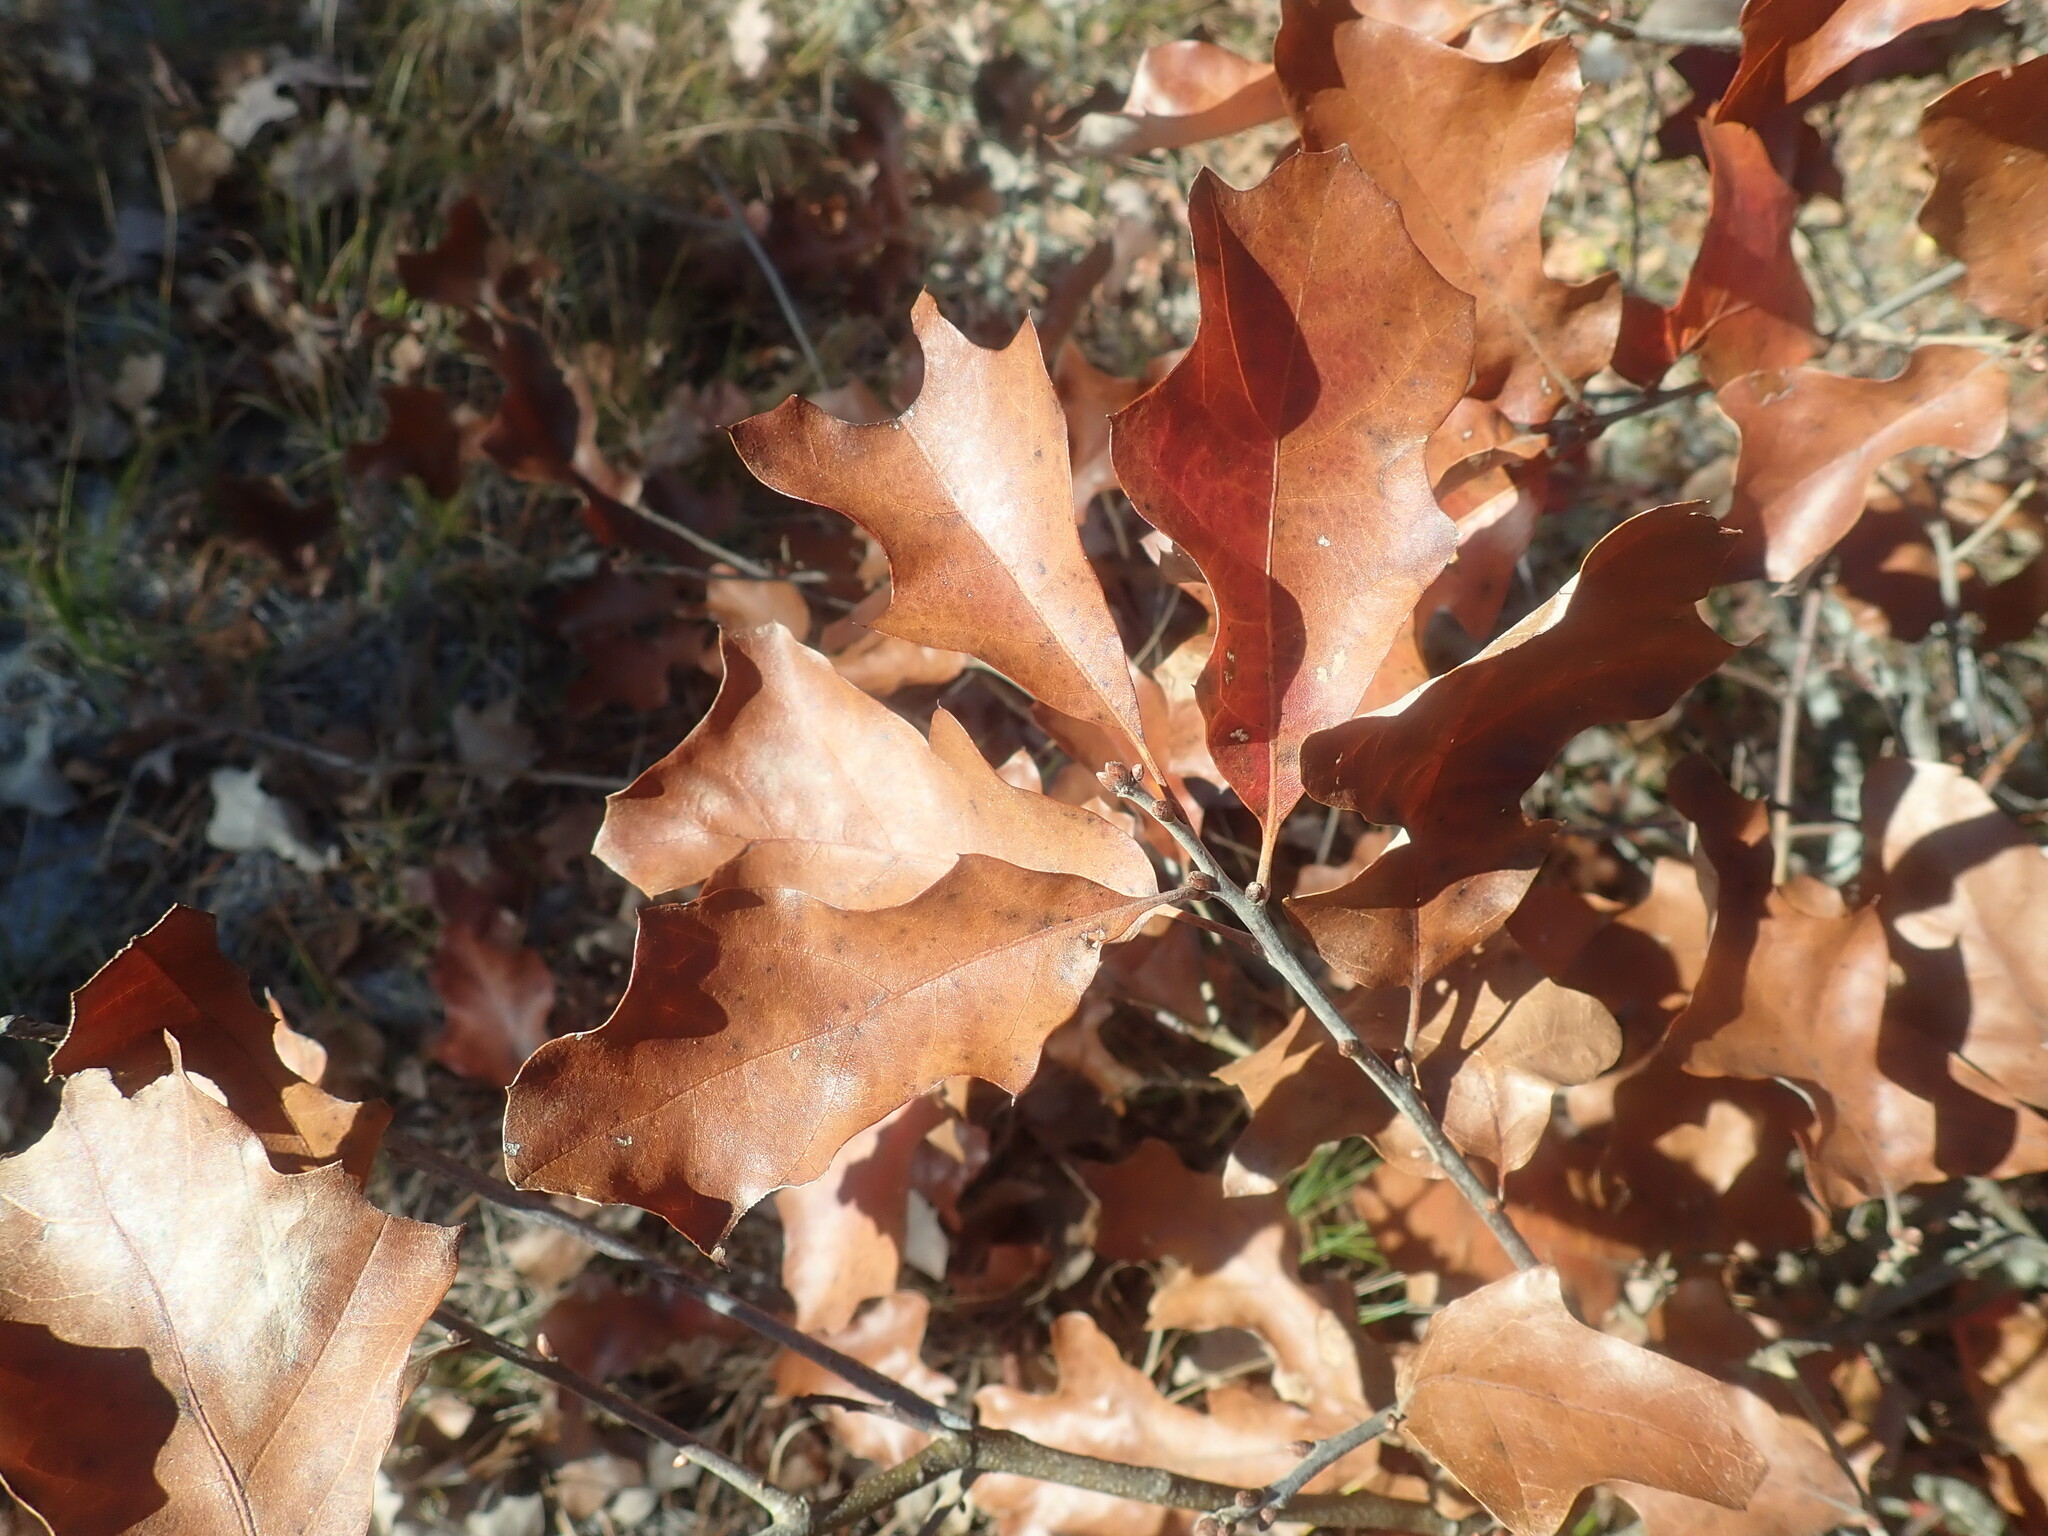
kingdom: Plantae
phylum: Tracheophyta
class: Magnoliopsida
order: Fagales
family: Fagaceae
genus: Quercus
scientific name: Quercus ilicifolia
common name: Bear oak
